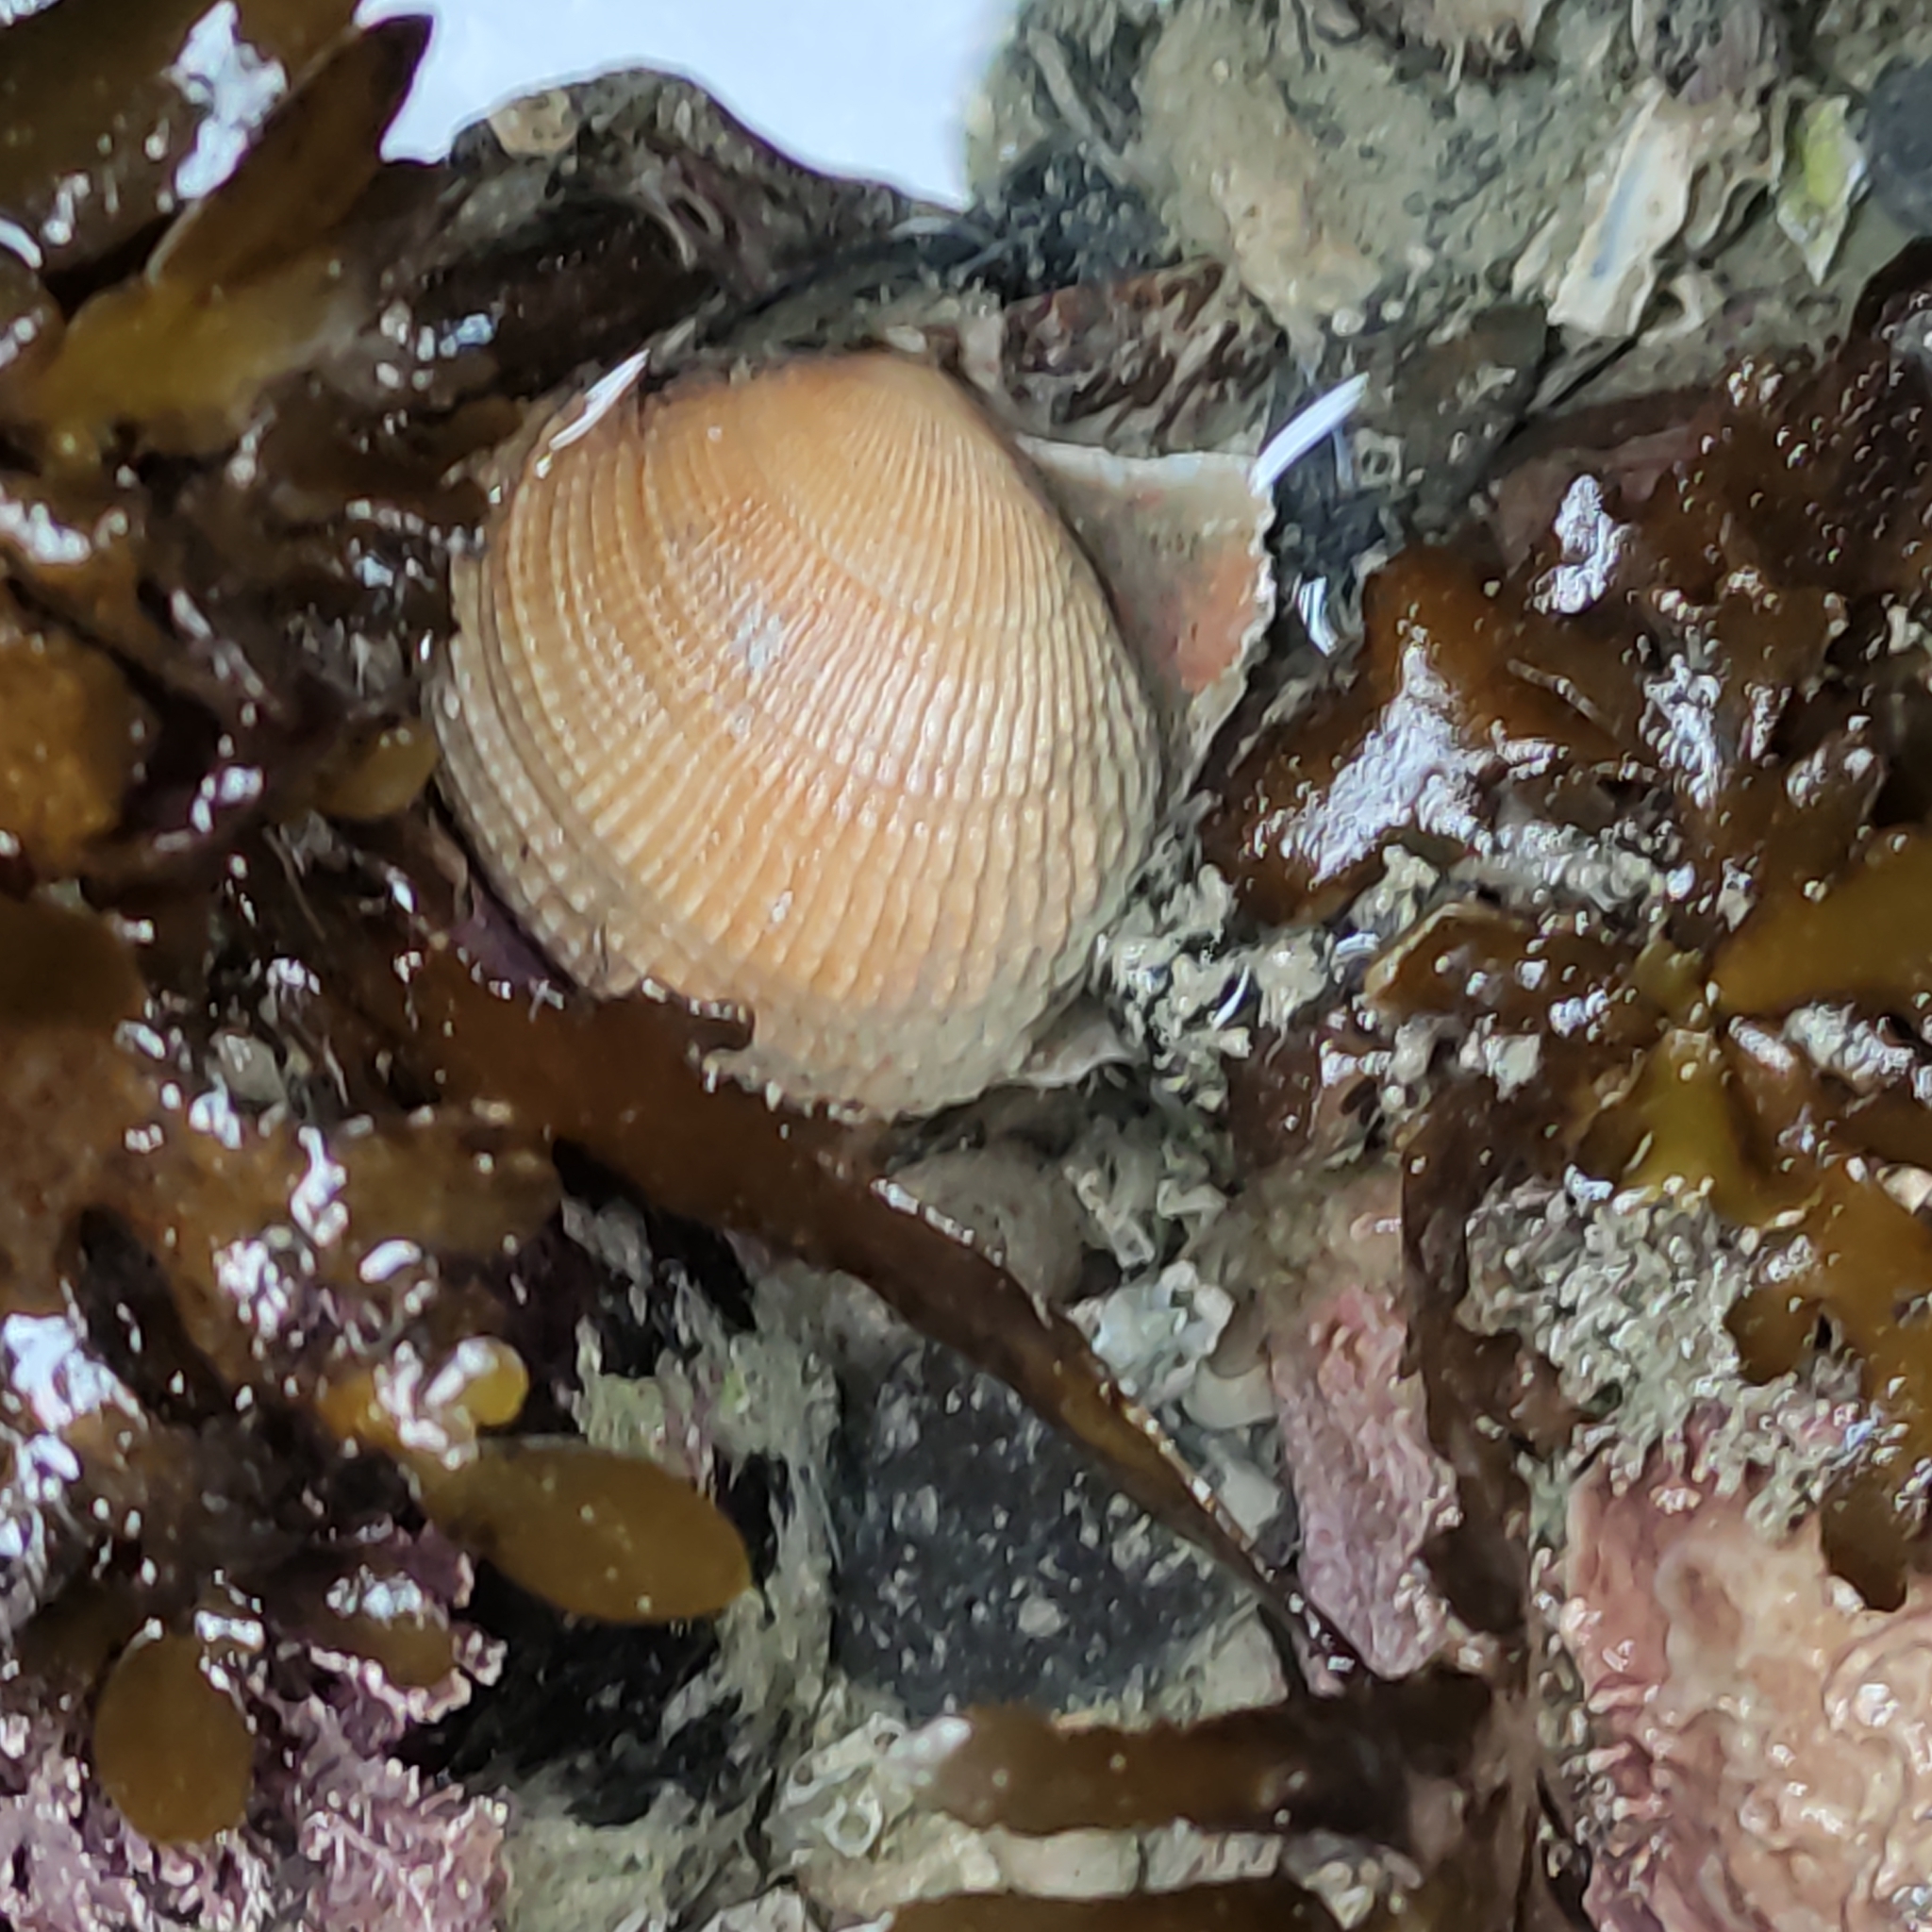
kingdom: Animalia
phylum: Mollusca
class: Bivalvia
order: Venerida
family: Veneridae
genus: Leukoma
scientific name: Leukoma crassicosta
